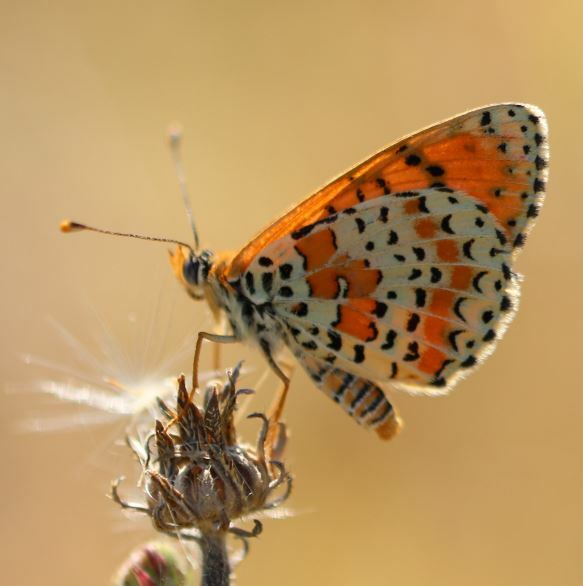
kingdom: Animalia
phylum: Arthropoda
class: Insecta
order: Lepidoptera
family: Nymphalidae
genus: Melitaea
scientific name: Melitaea didyma
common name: Spotted fritillary
